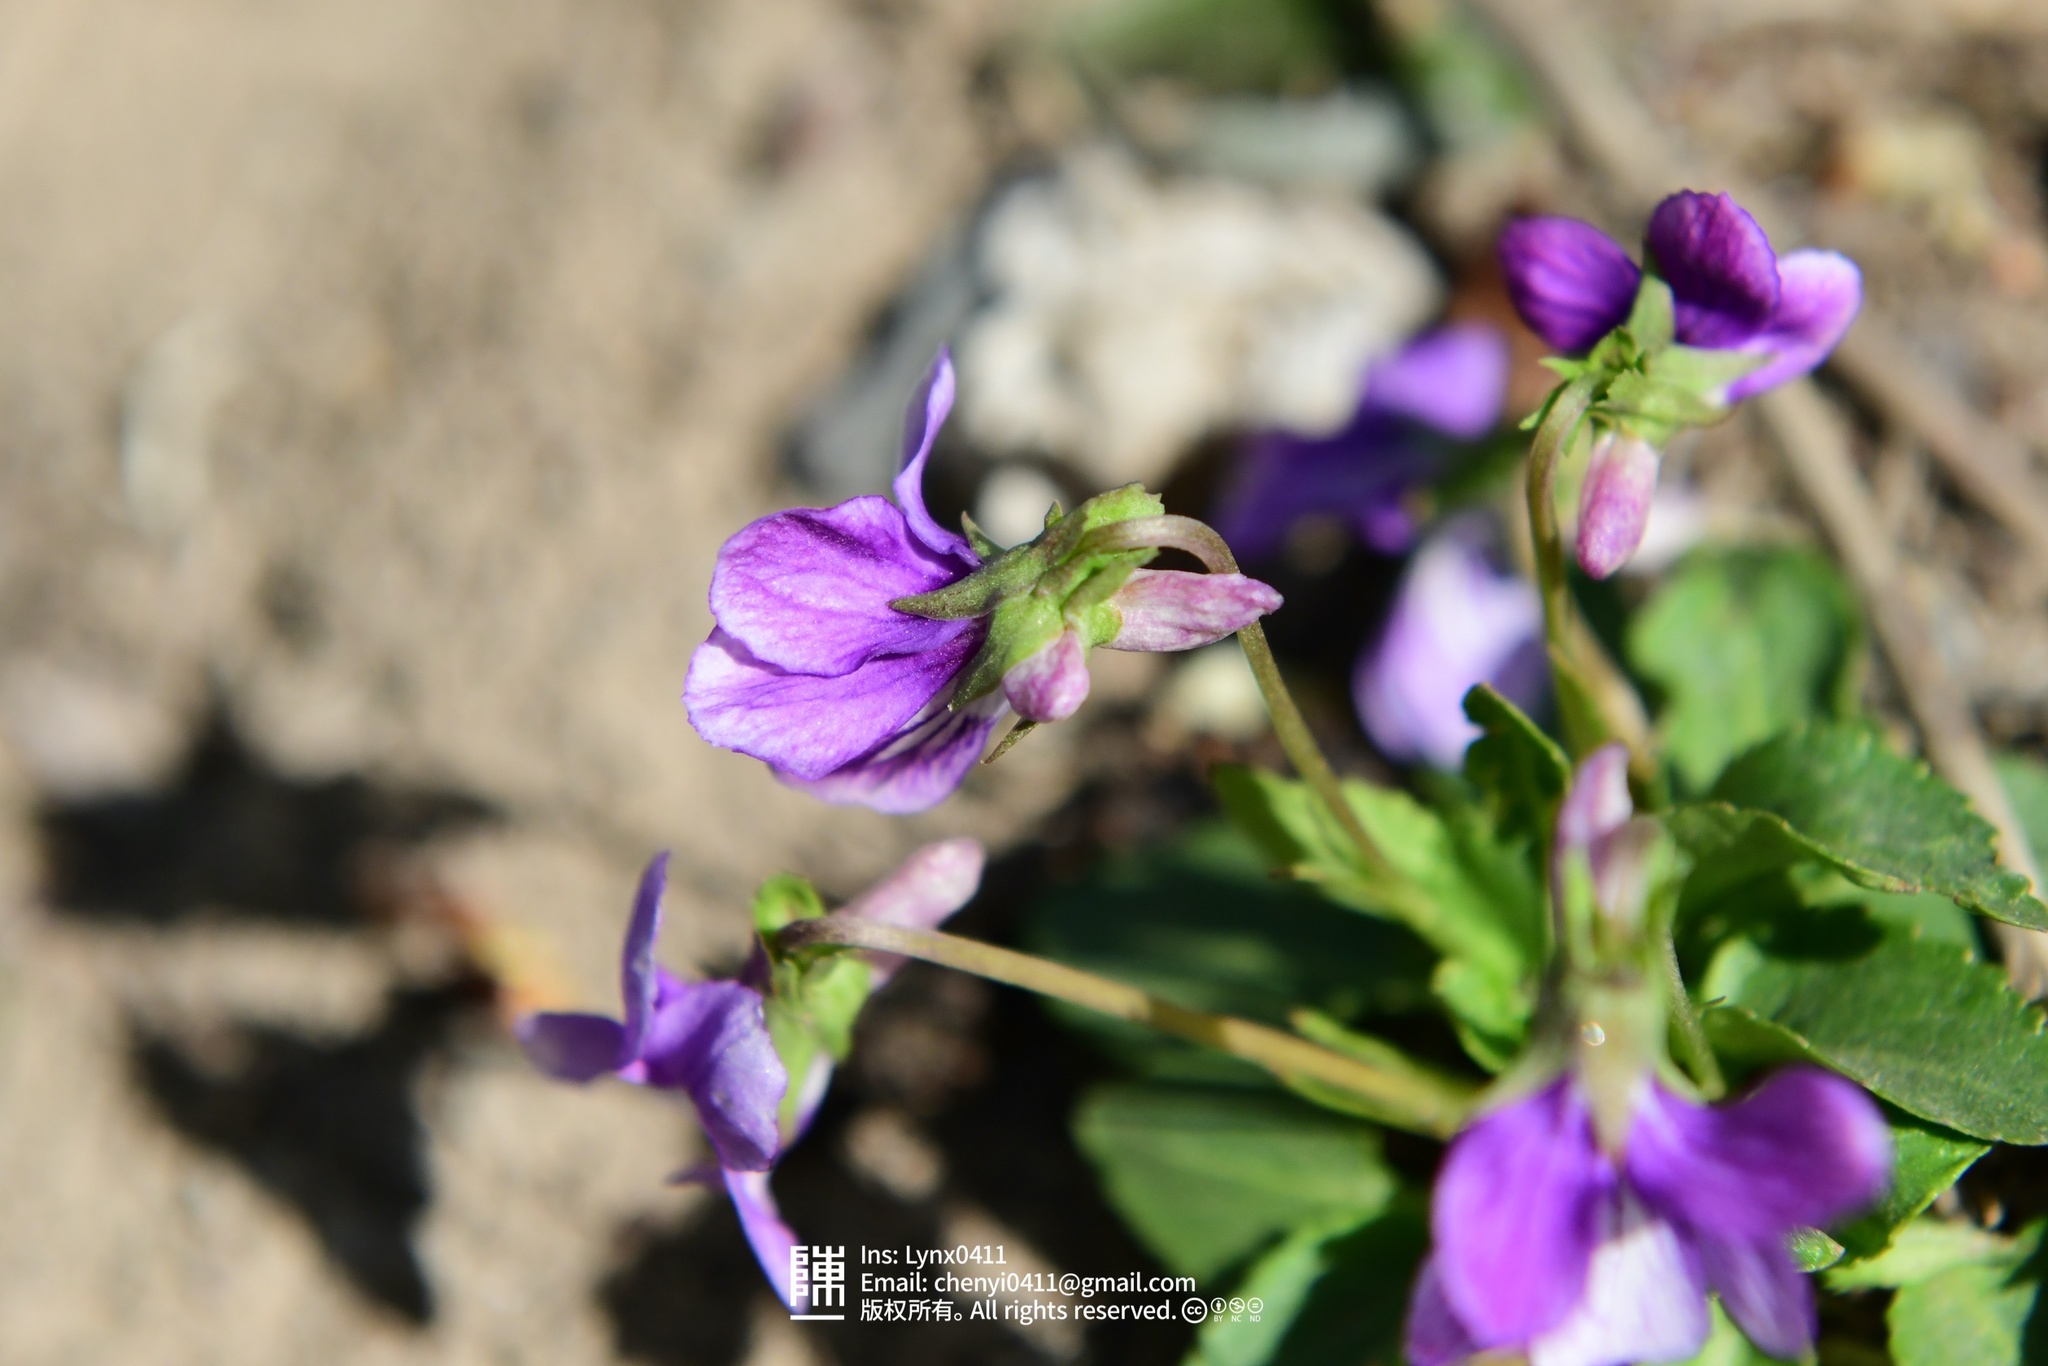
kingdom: Plantae
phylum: Tracheophyta
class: Magnoliopsida
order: Malpighiales
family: Violaceae
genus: Viola
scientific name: Viola prionantha
